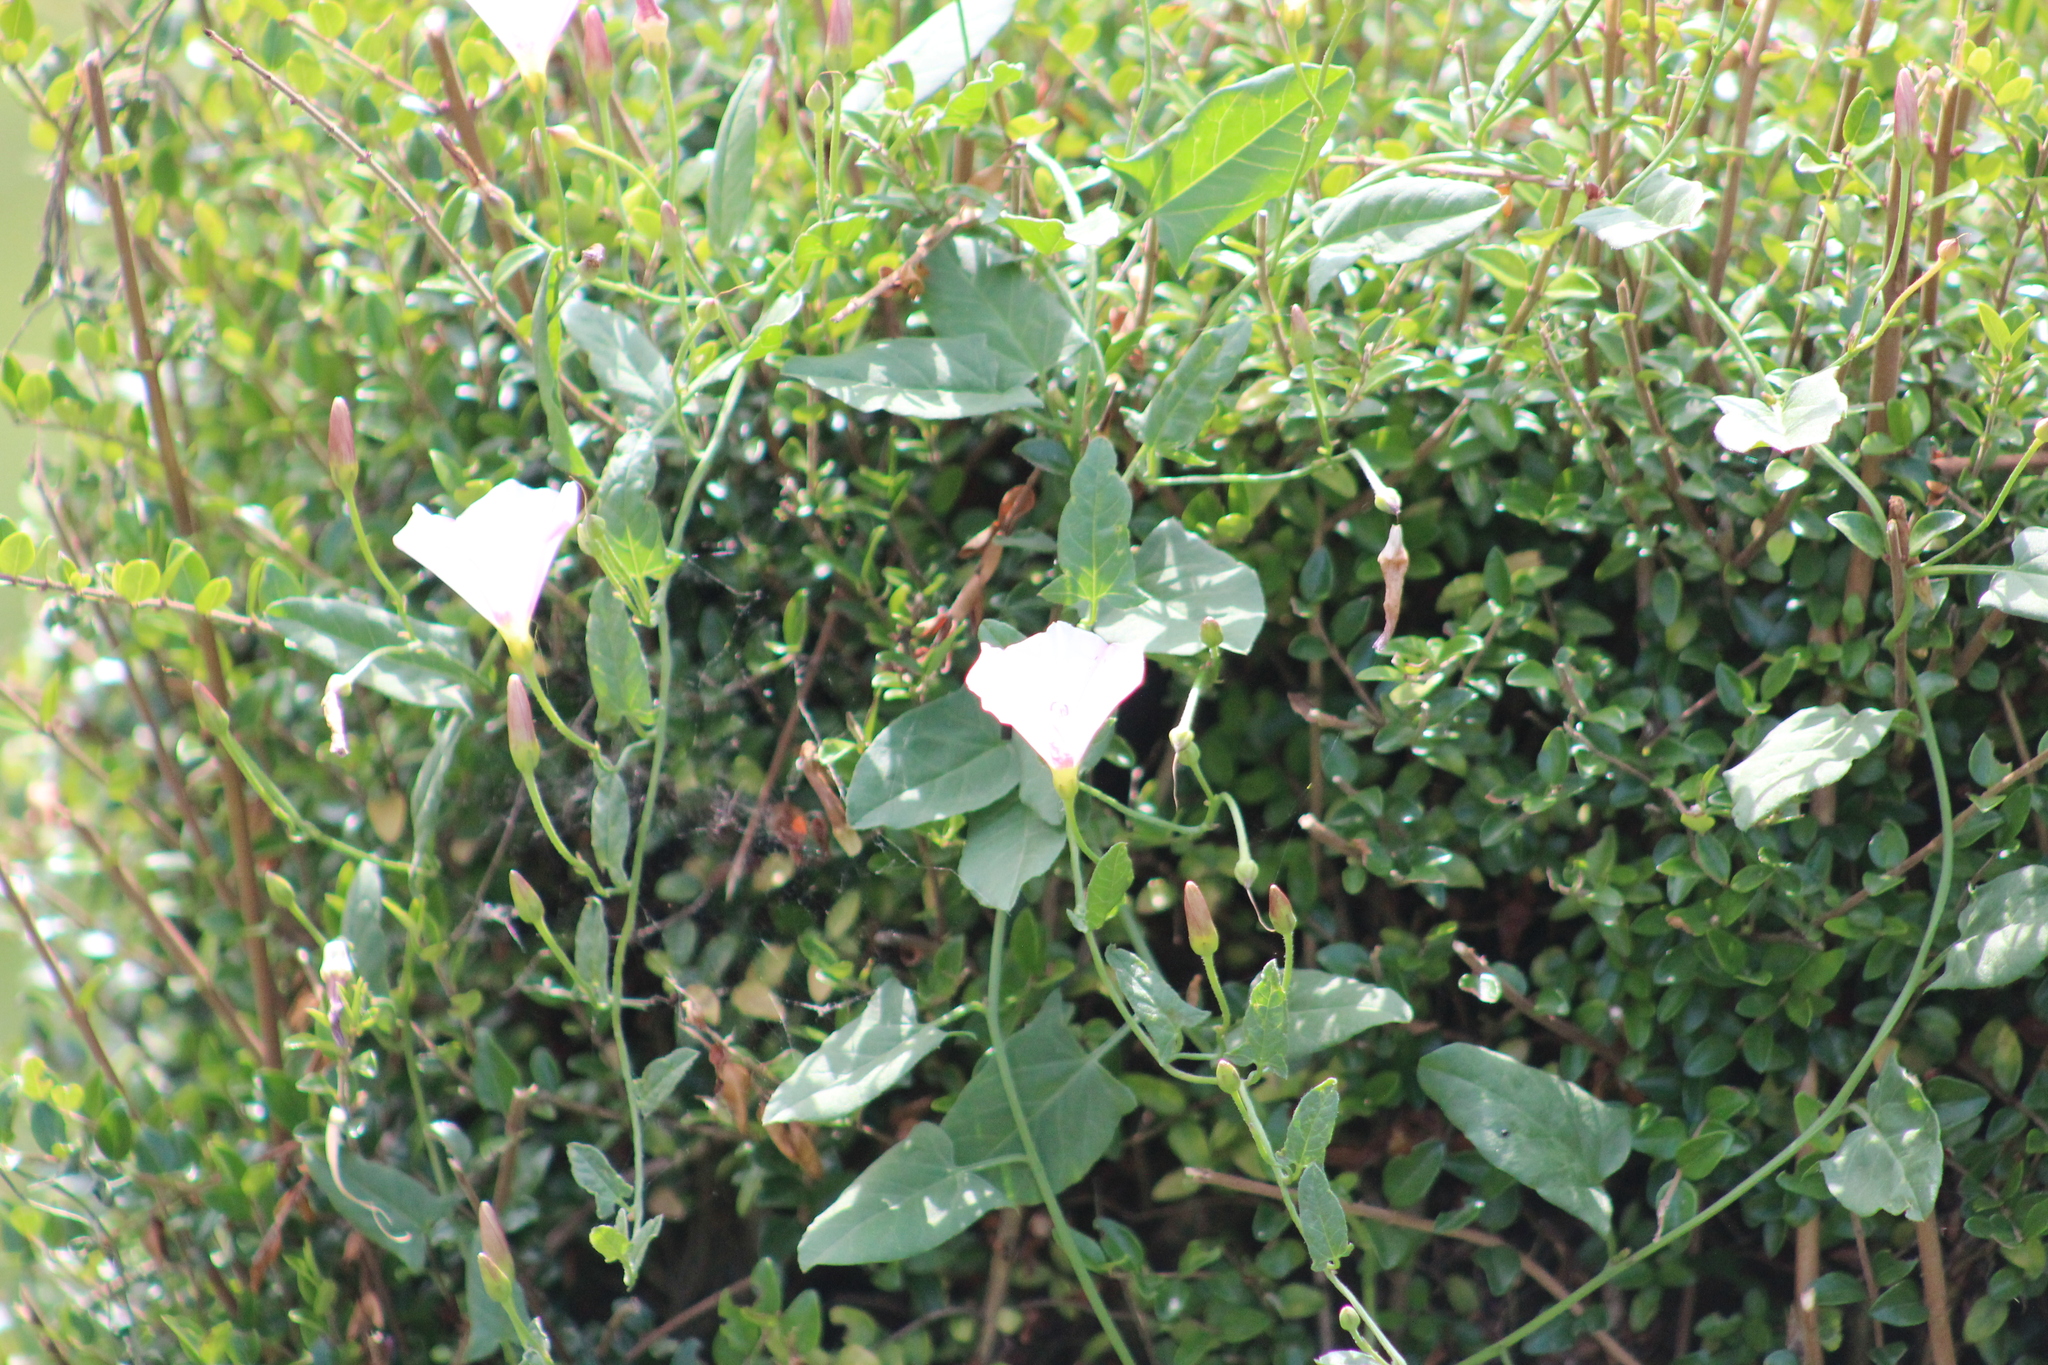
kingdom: Plantae
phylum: Tracheophyta
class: Magnoliopsida
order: Solanales
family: Convolvulaceae
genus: Convolvulus
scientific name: Convolvulus arvensis
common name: Field bindweed
